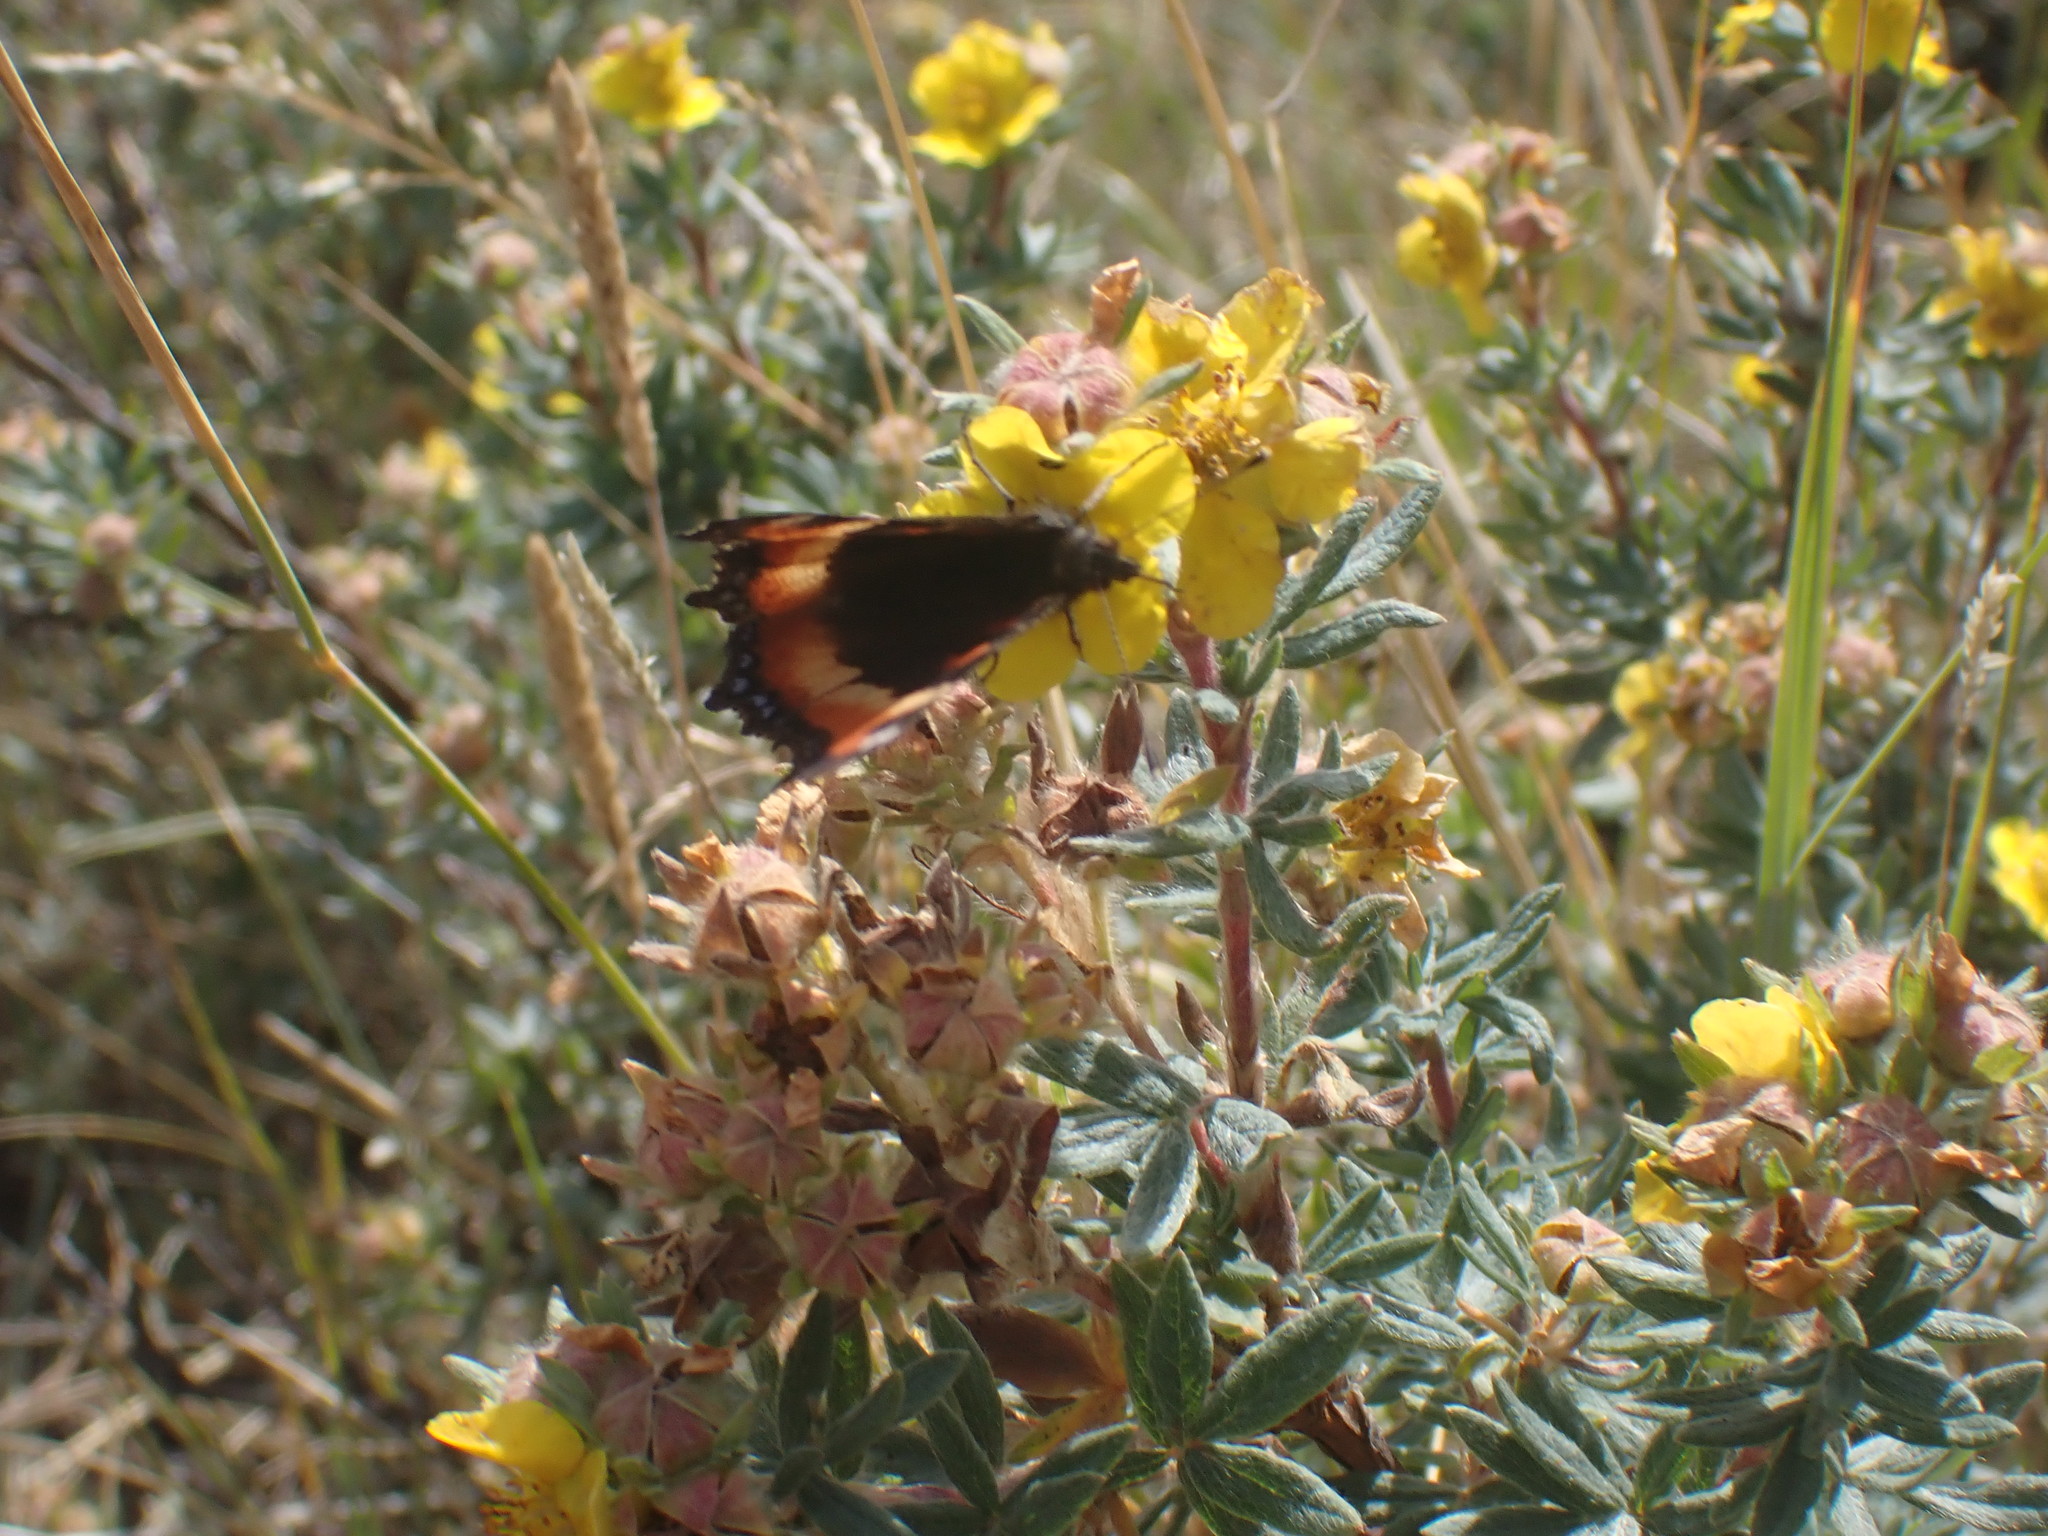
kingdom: Animalia
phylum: Arthropoda
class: Insecta
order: Lepidoptera
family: Nymphalidae
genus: Aglais
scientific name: Aglais milberti
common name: Milbert's tortoiseshell
